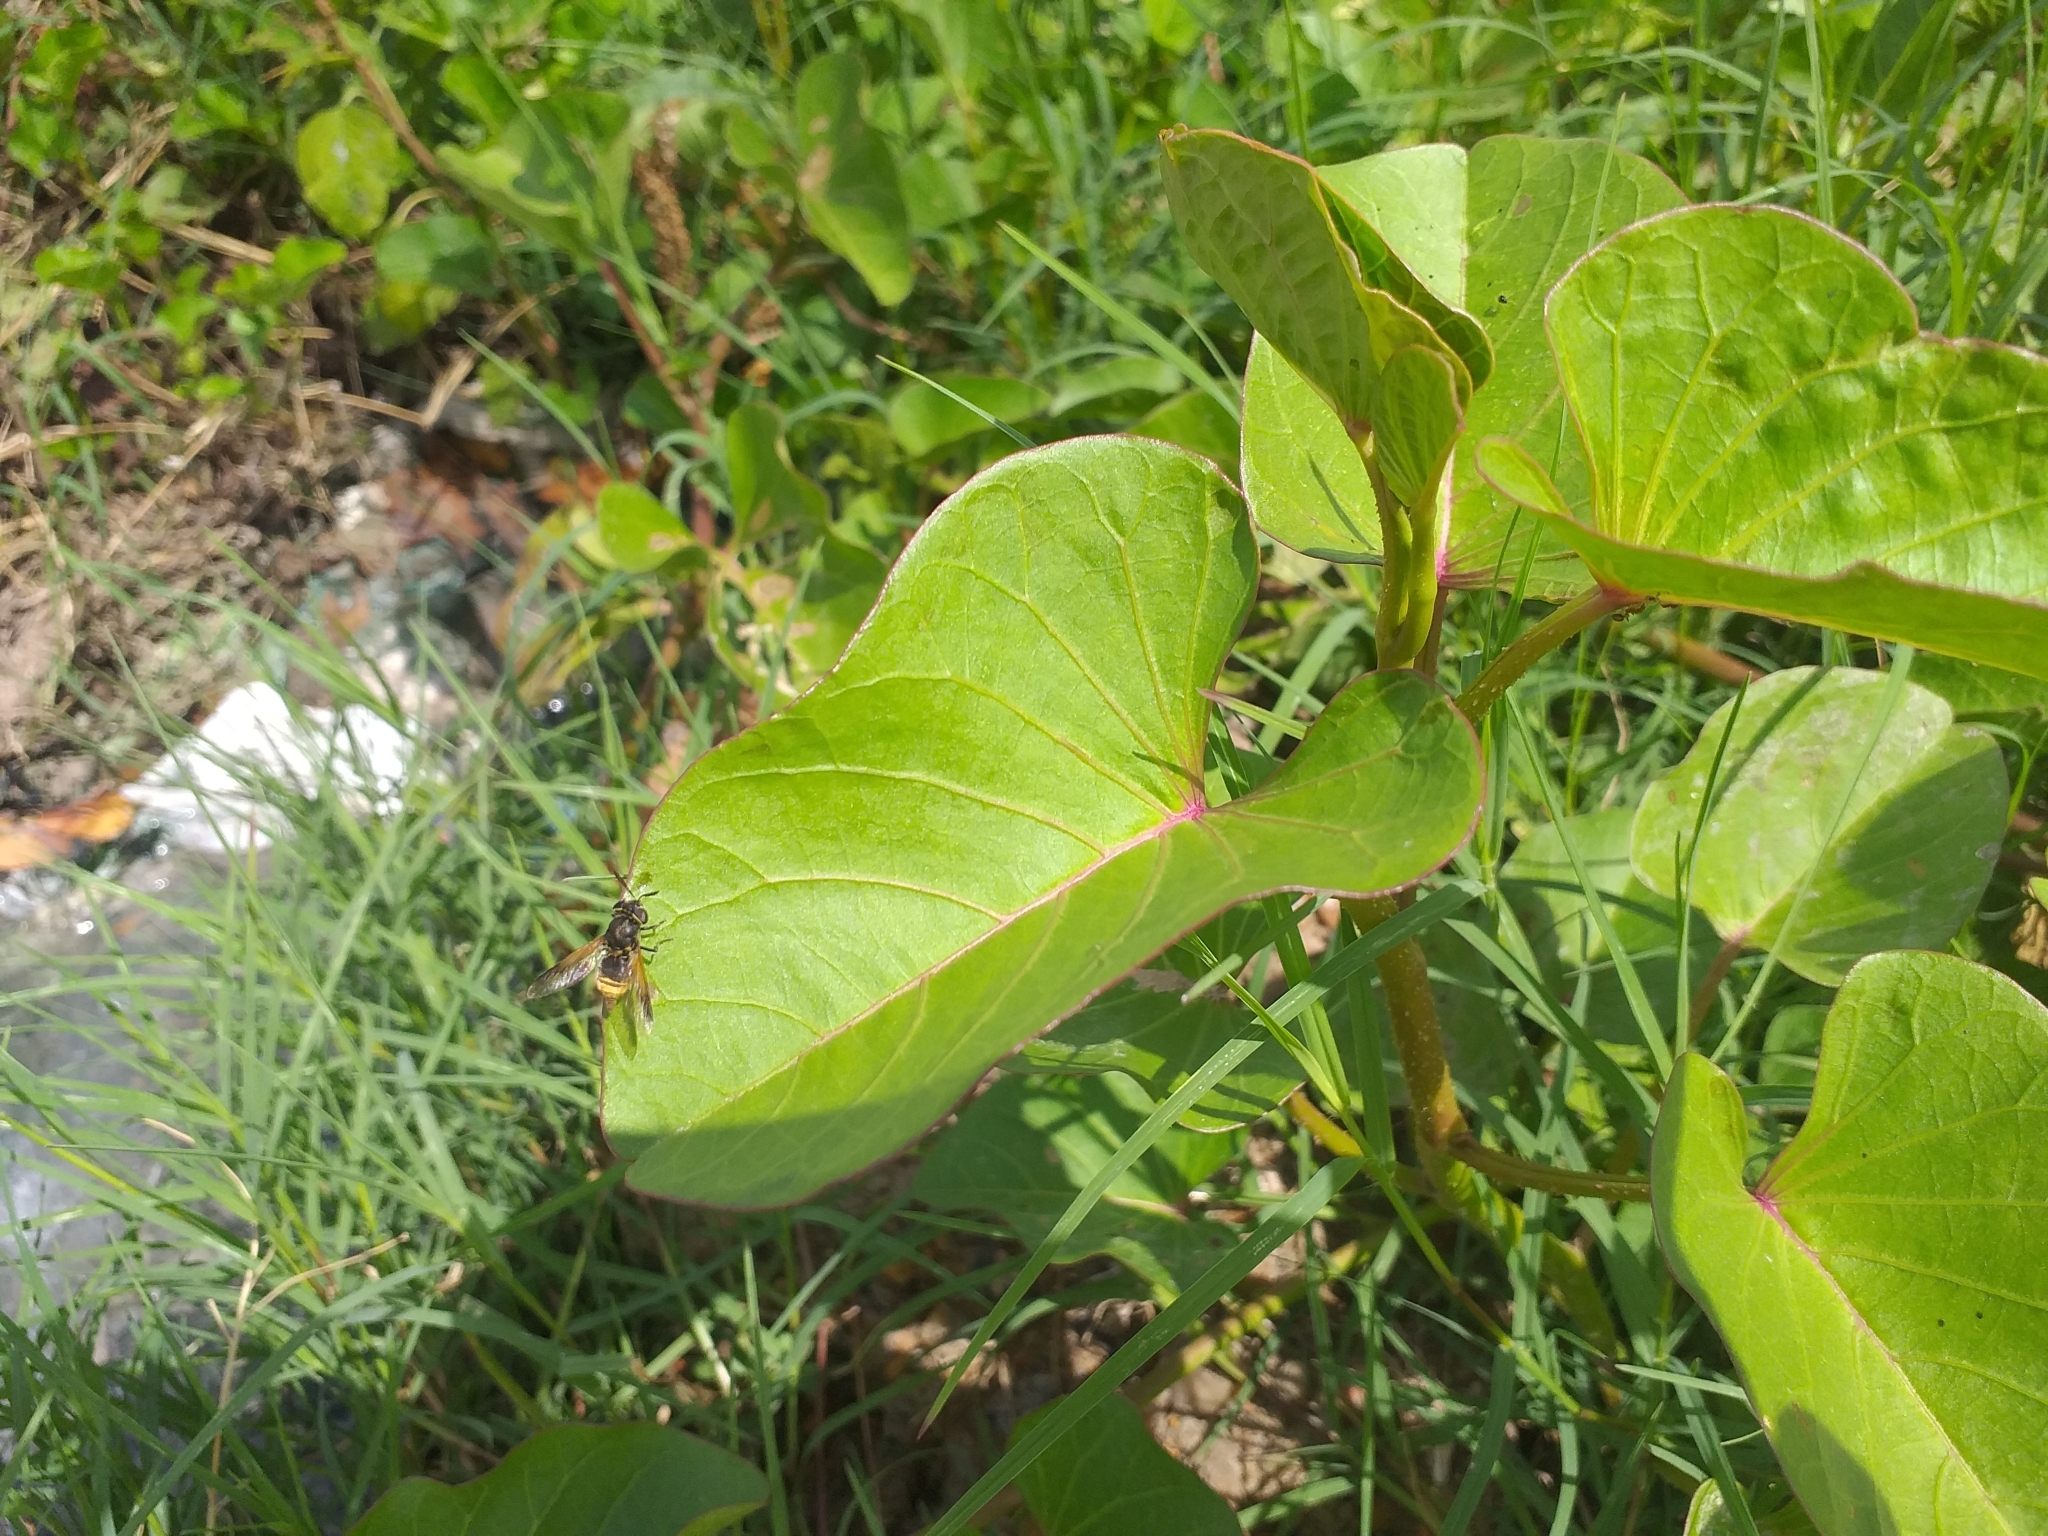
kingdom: Animalia
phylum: Arthropoda
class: Insecta
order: Diptera
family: Stratiomyidae
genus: Hoplitimyia
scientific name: Hoplitimyia mutabilis
